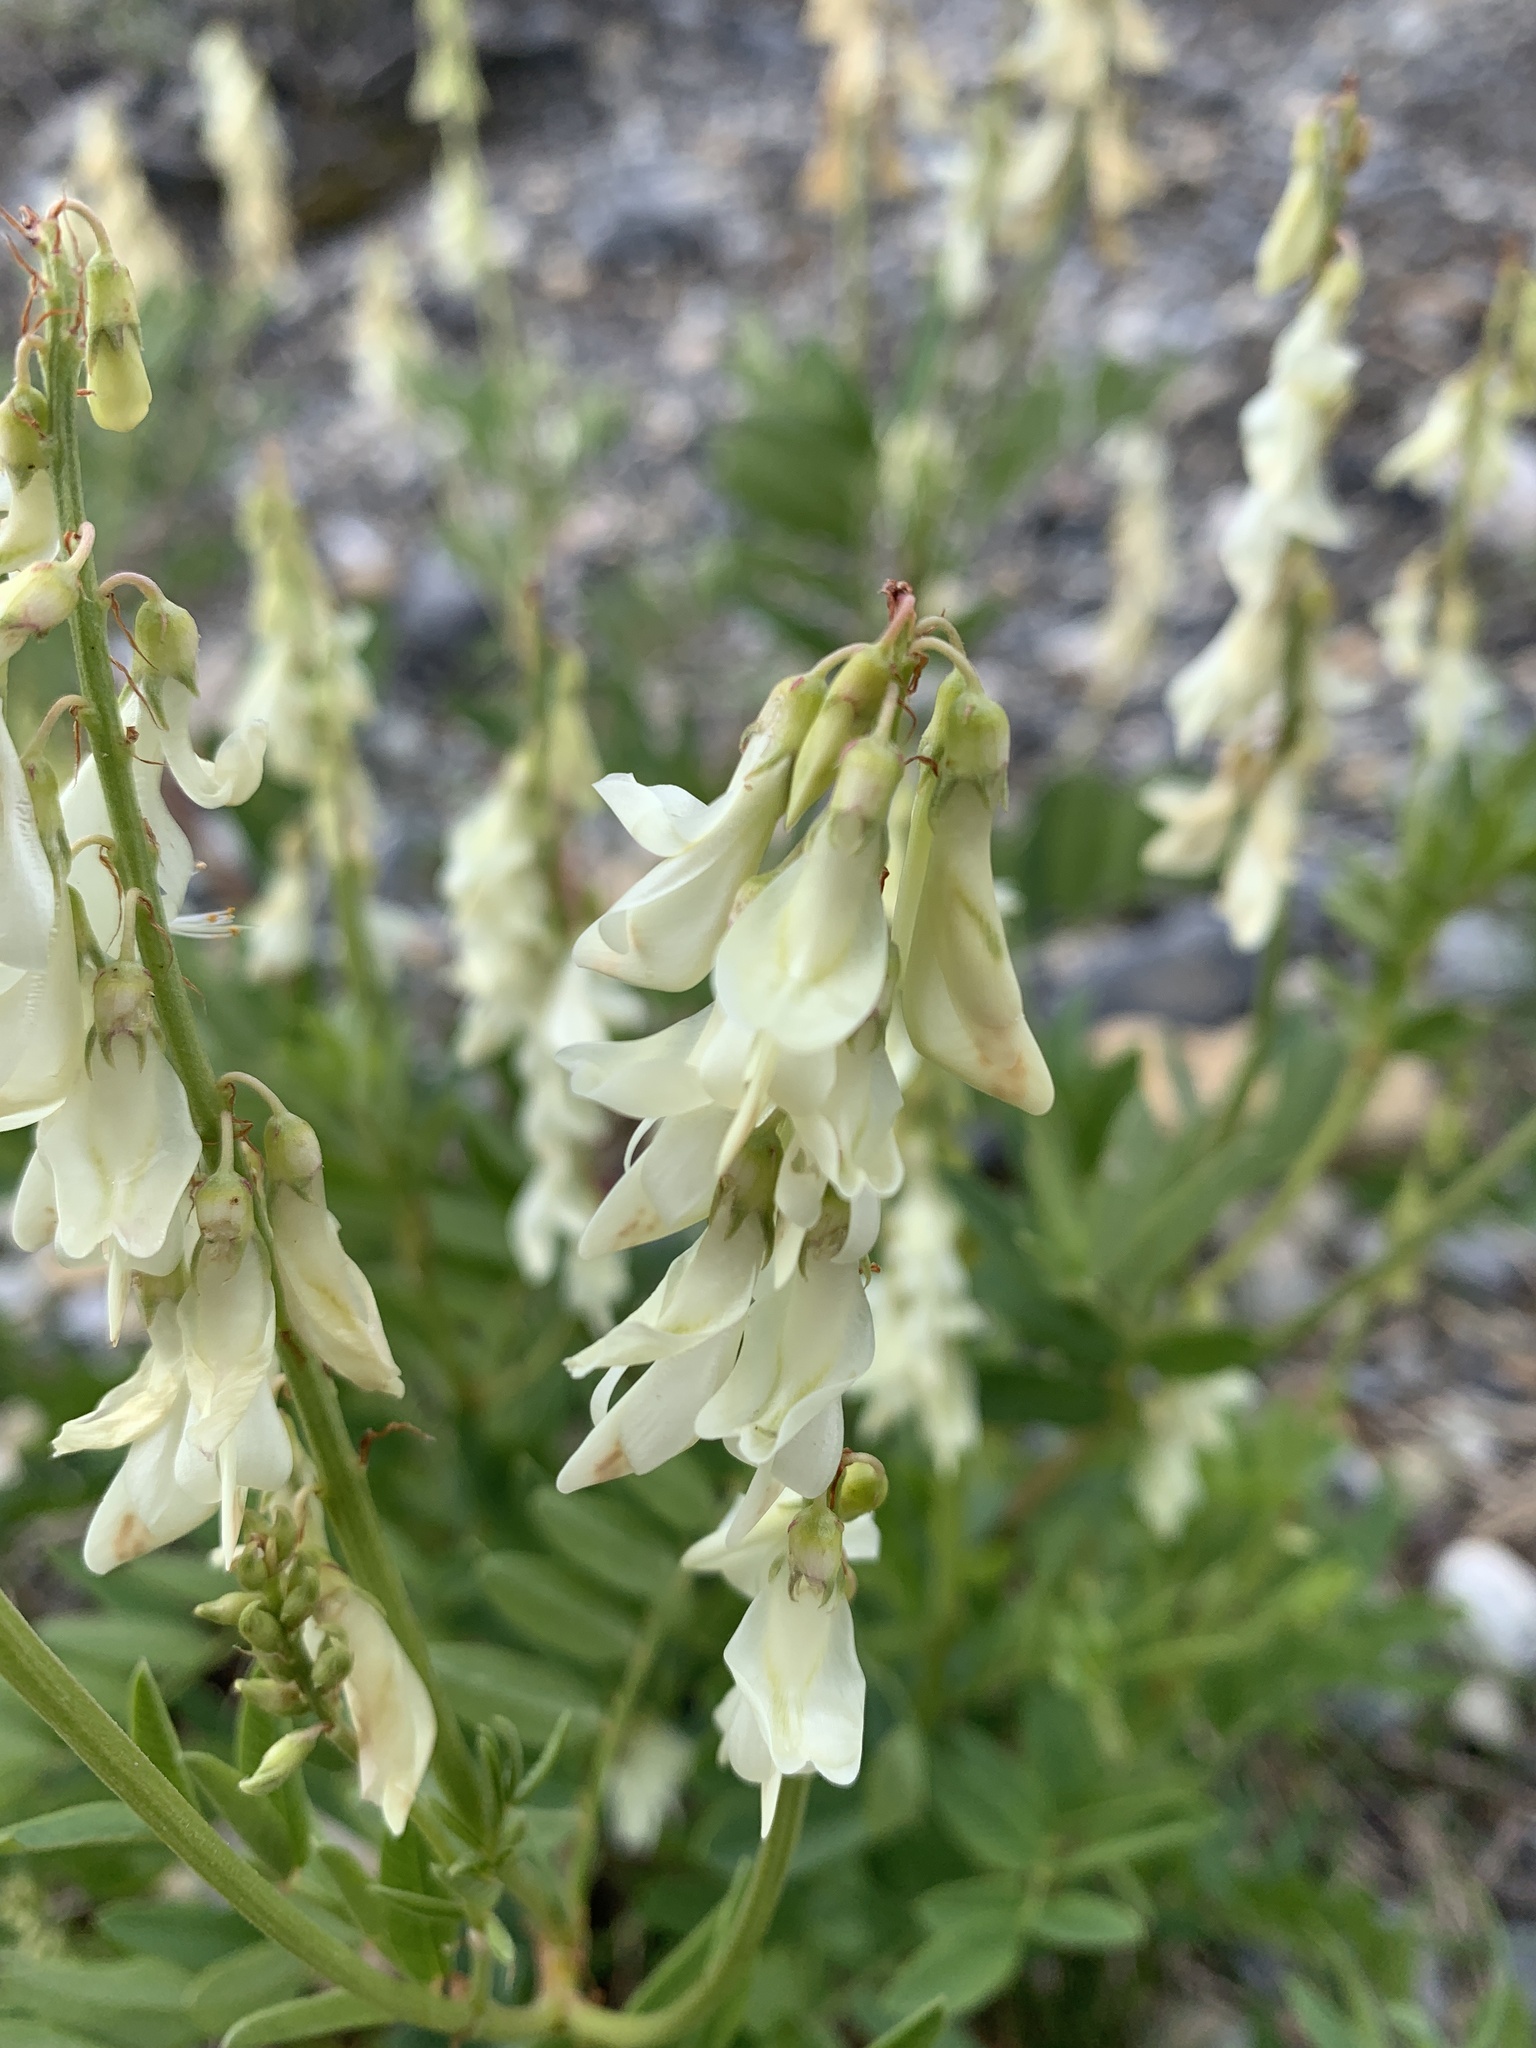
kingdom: Plantae
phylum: Tracheophyta
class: Magnoliopsida
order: Fabales
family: Fabaceae
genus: Hedysarum
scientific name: Hedysarum sulphurescens
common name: Sulphur hedysarum
